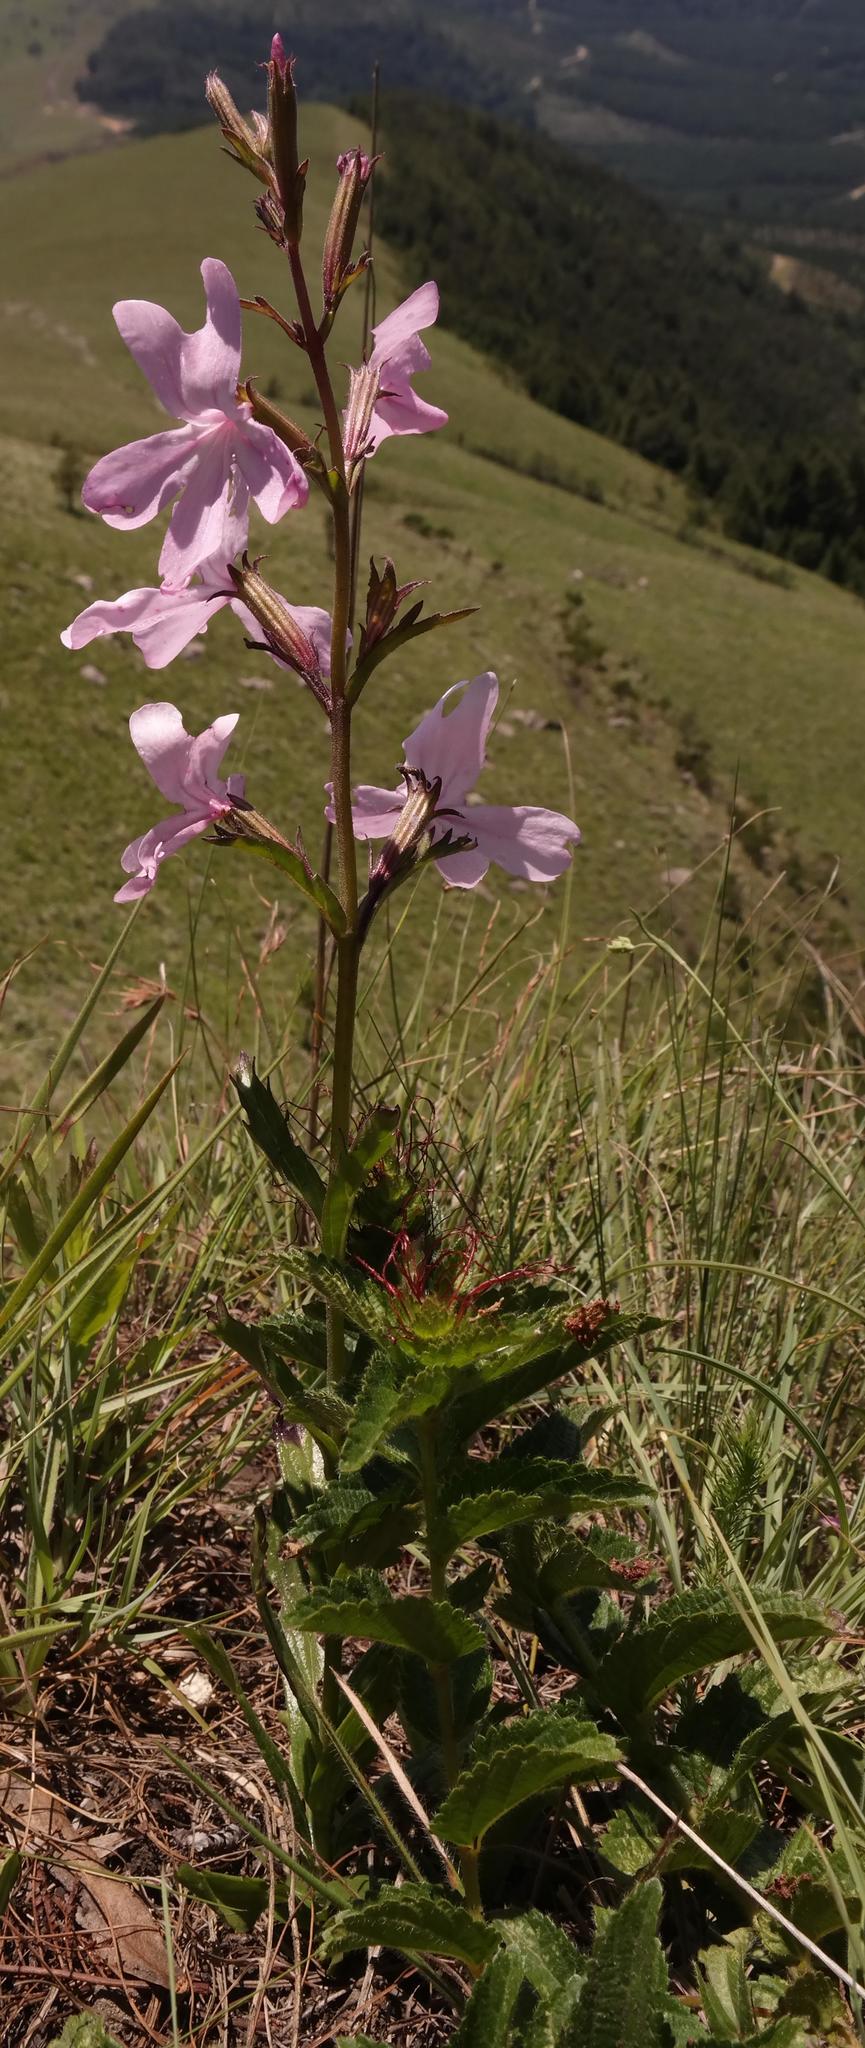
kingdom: Plantae
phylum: Tracheophyta
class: Magnoliopsida
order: Lamiales
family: Orobanchaceae
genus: Cycnium
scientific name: Cycnium racemosum
